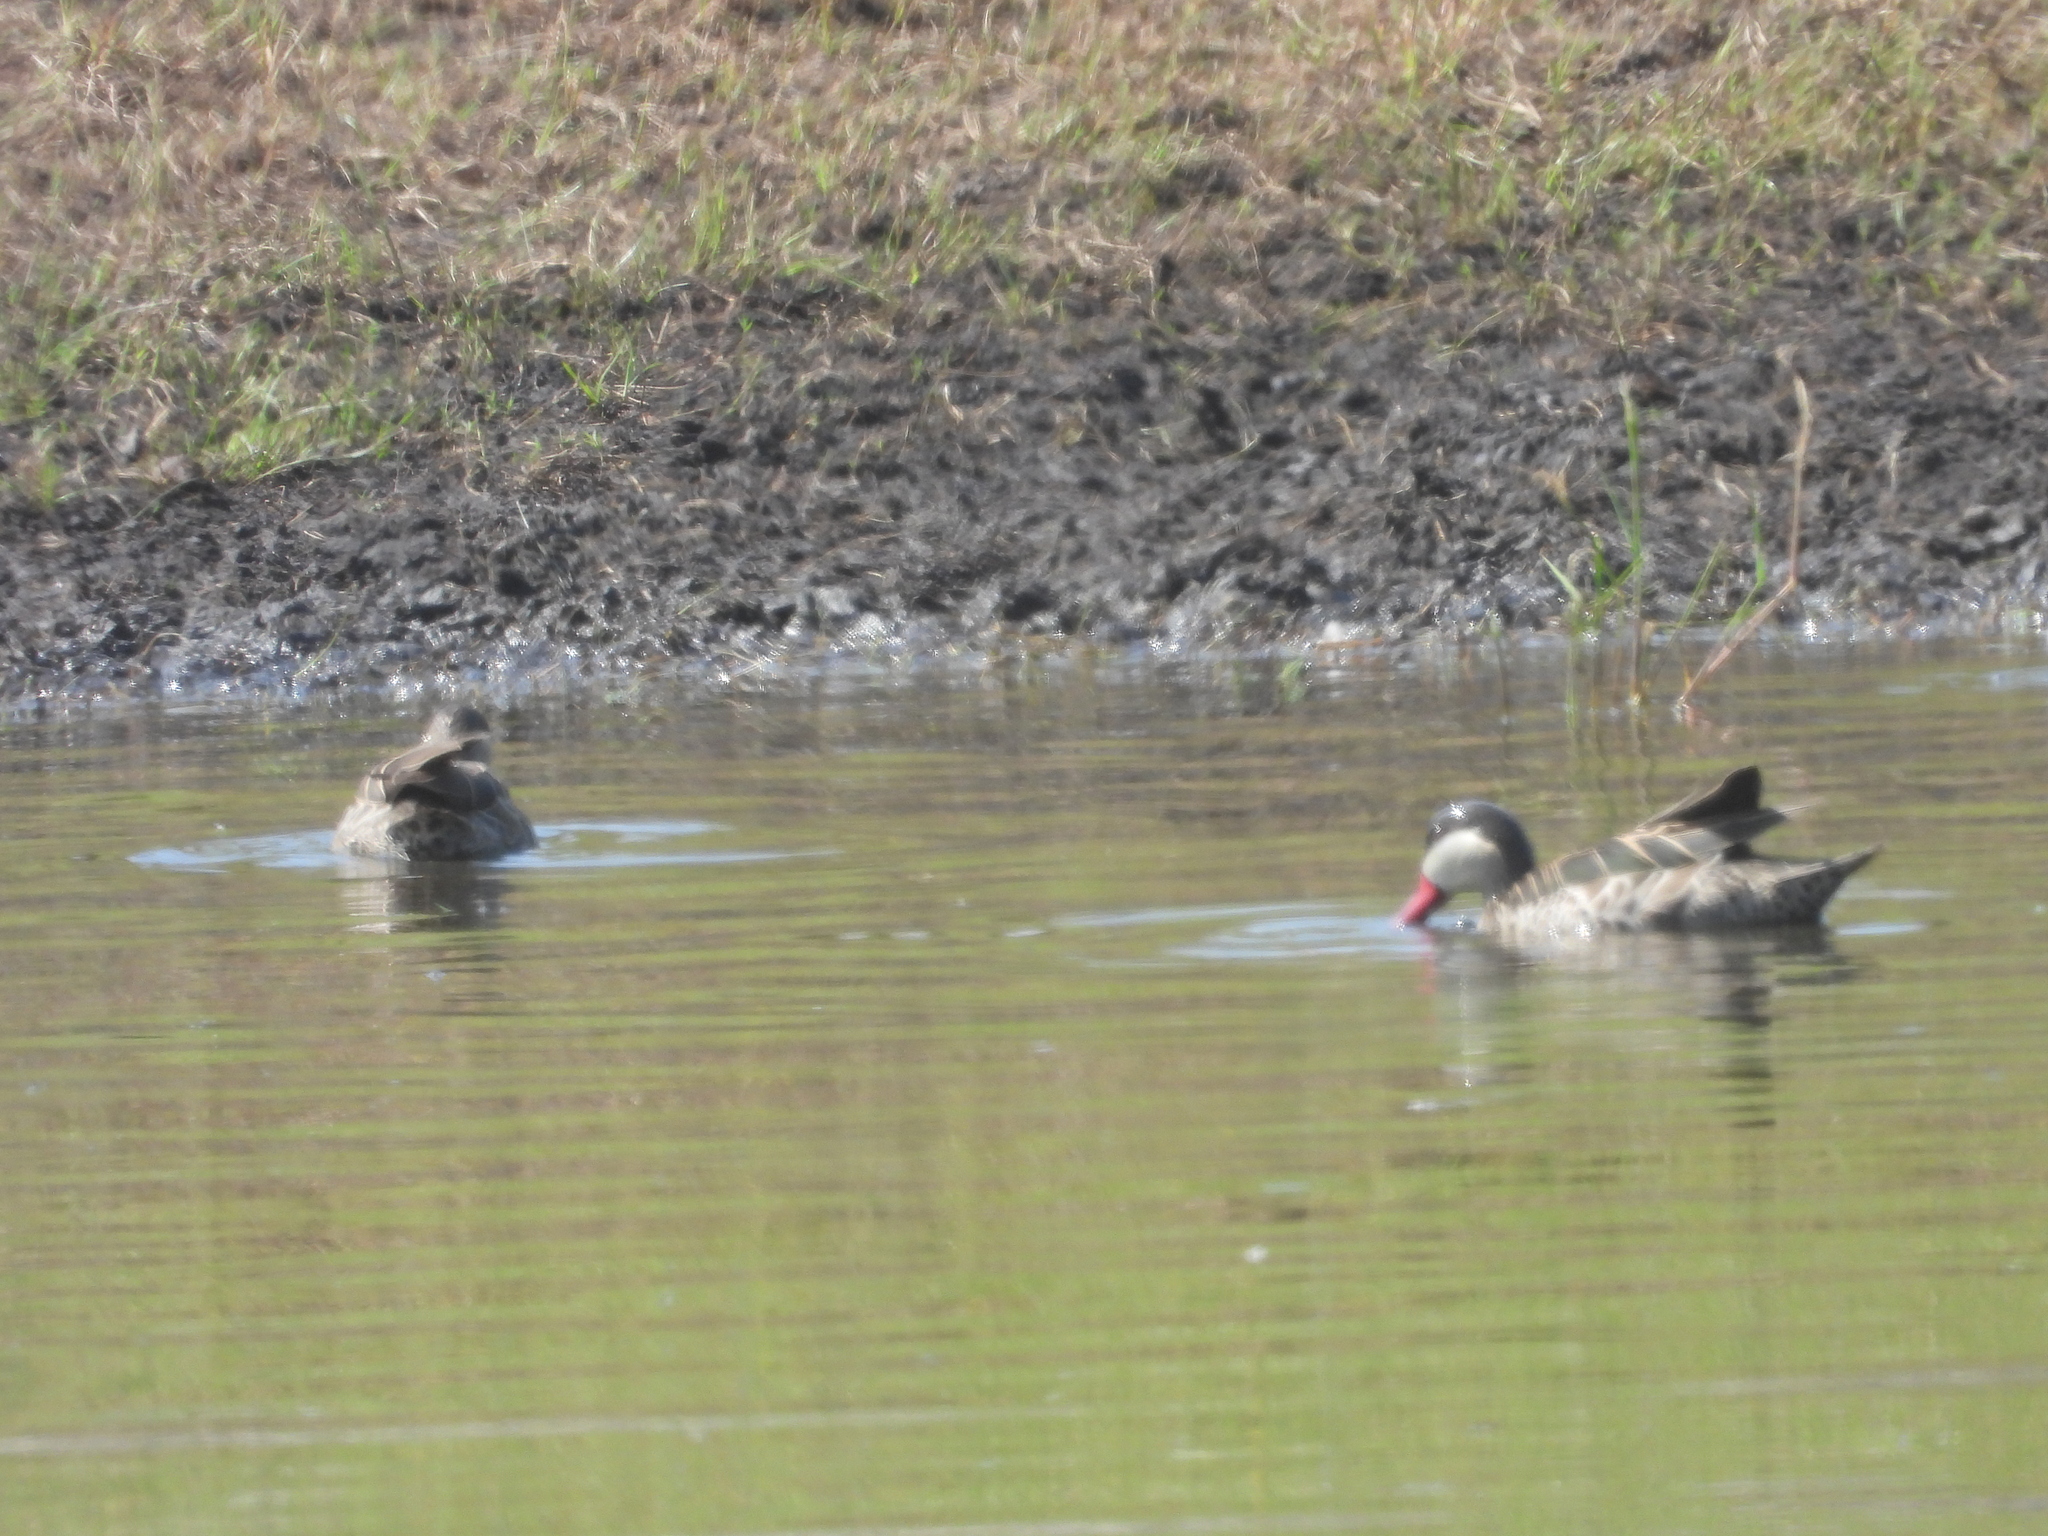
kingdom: Animalia
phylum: Chordata
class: Aves
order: Anseriformes
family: Anatidae
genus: Anas
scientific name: Anas erythrorhyncha
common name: Red-billed teal
